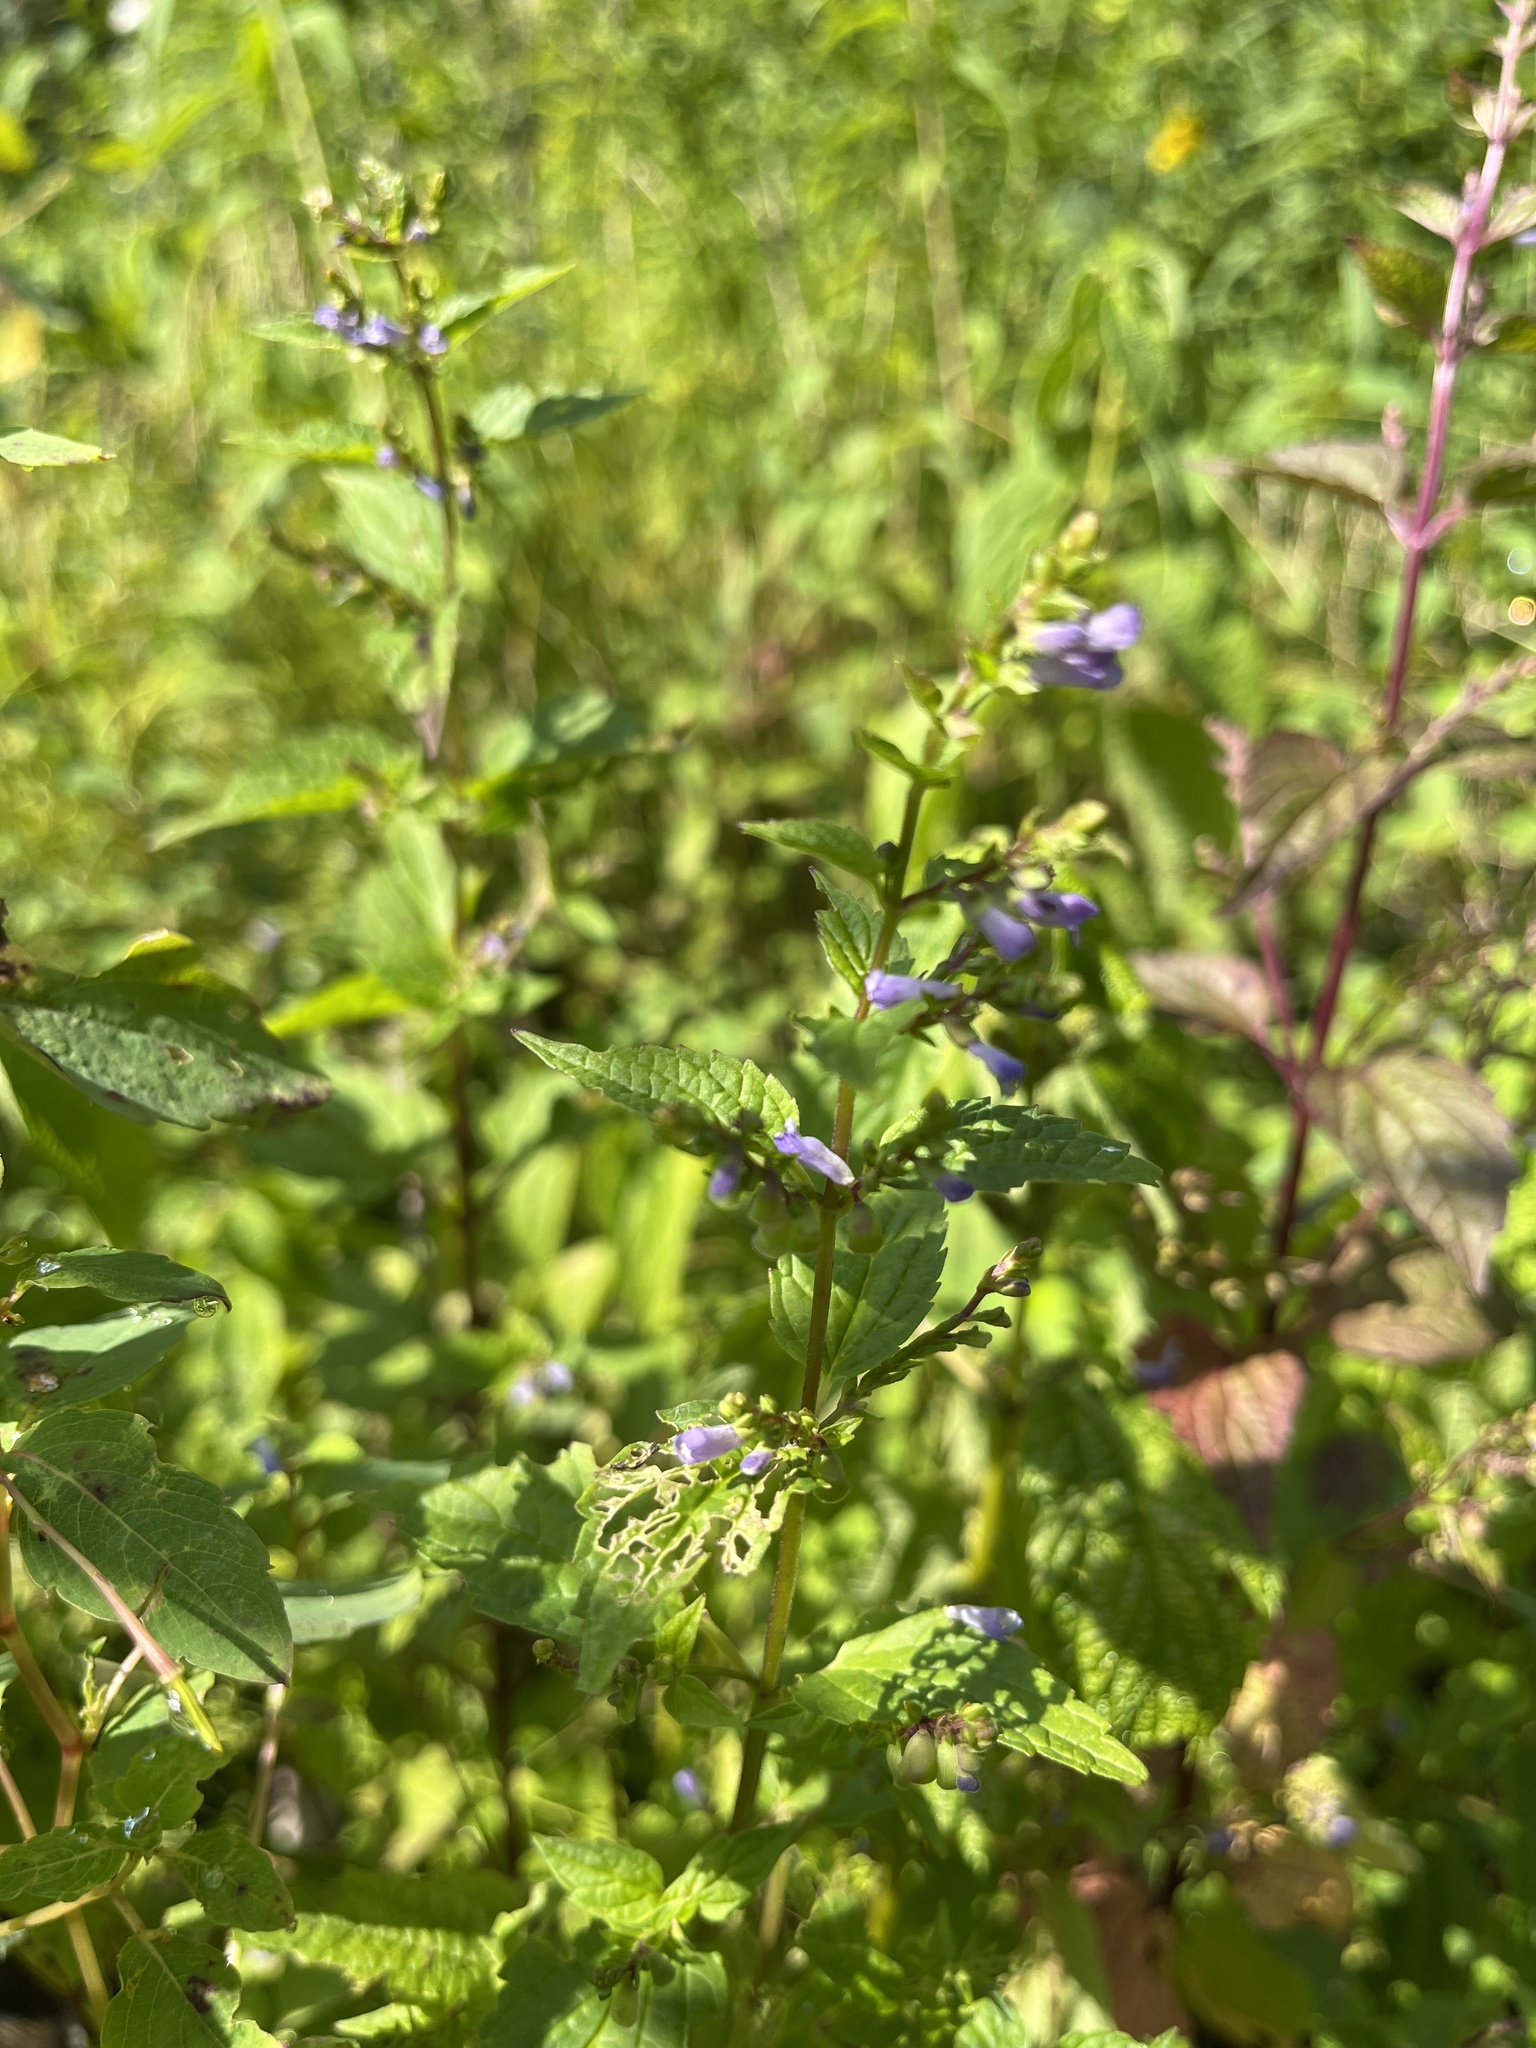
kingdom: Plantae
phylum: Tracheophyta
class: Magnoliopsida
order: Lamiales
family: Lamiaceae
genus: Scutellaria
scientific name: Scutellaria lateriflora
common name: Blue skullcap
